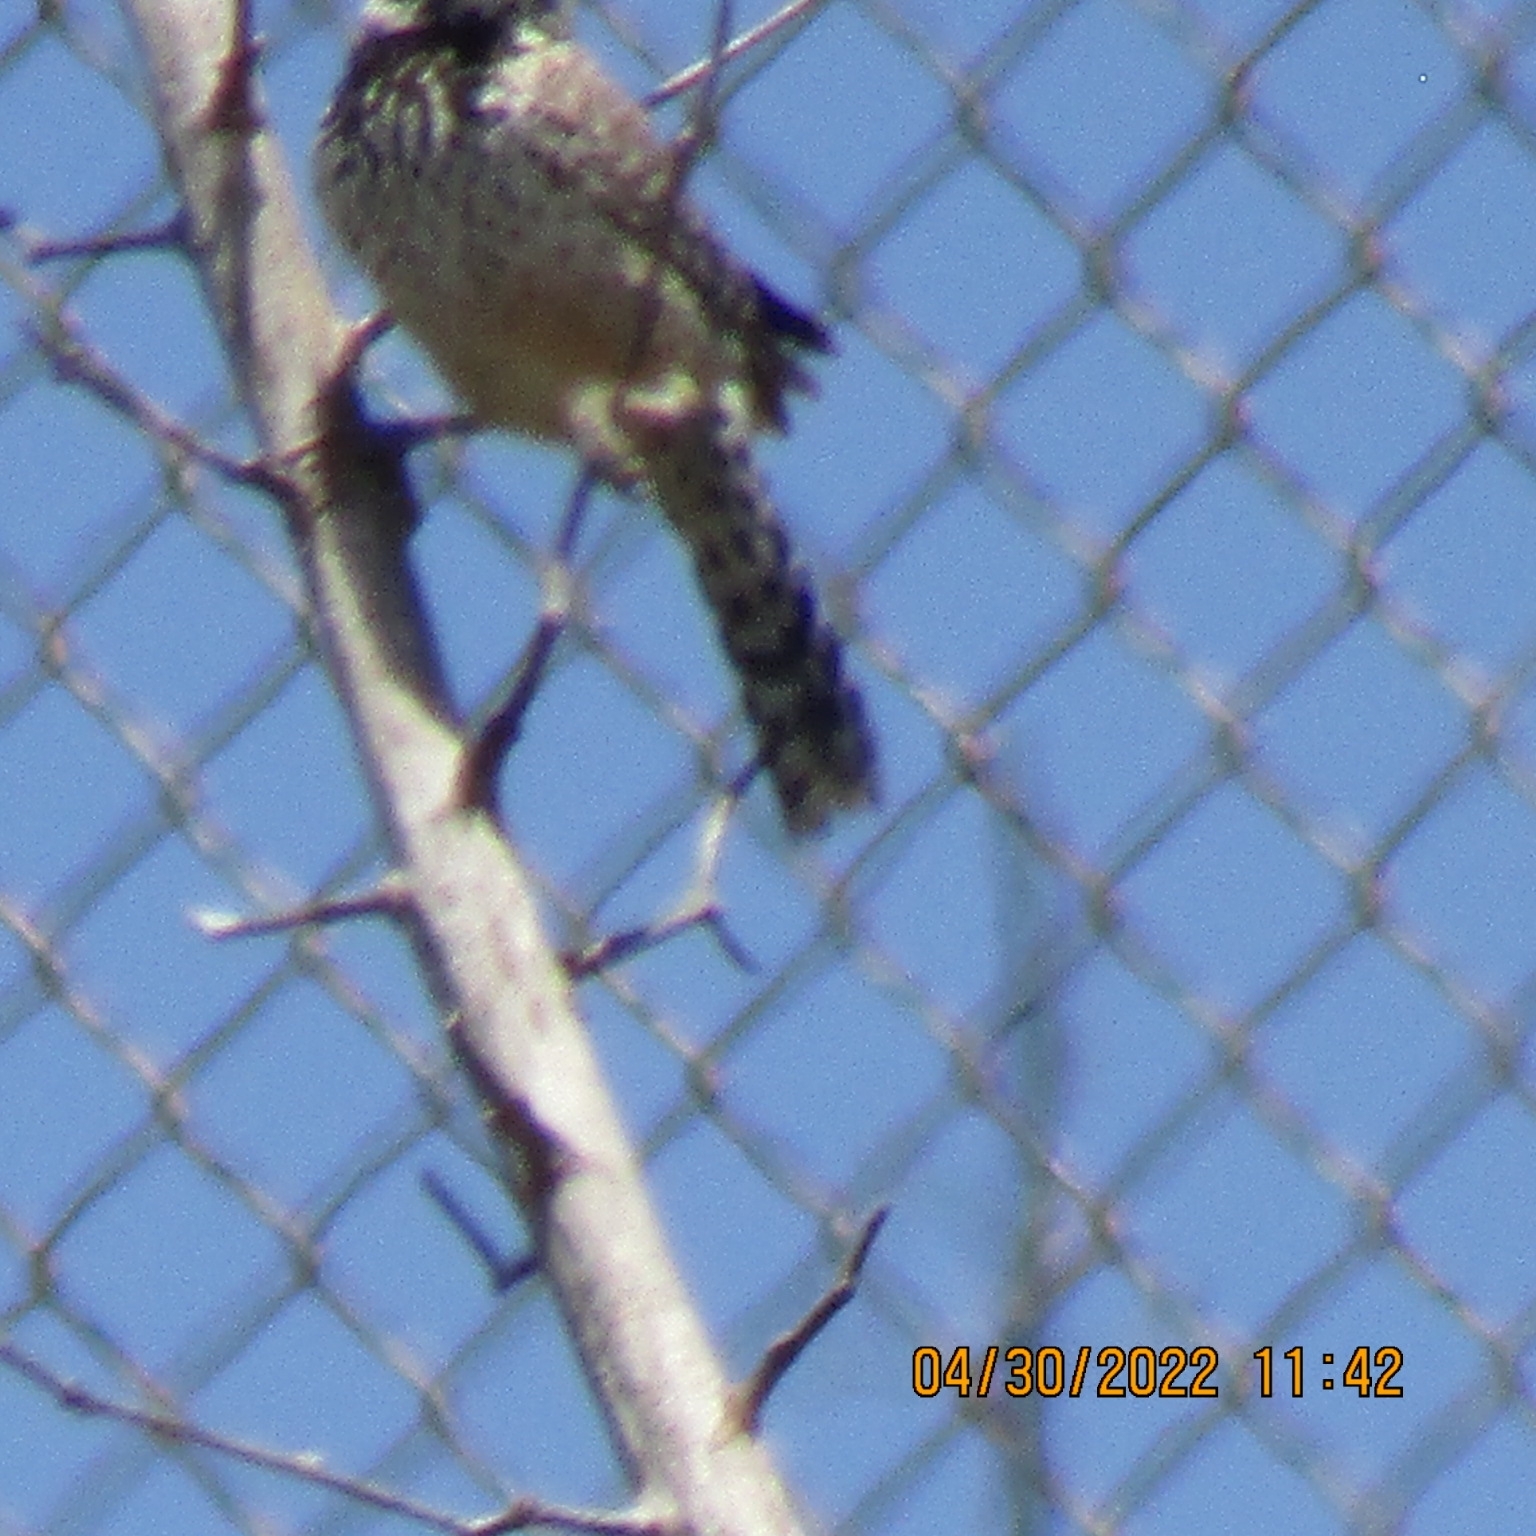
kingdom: Animalia
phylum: Chordata
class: Aves
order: Passeriformes
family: Troglodytidae
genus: Campylorhynchus
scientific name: Campylorhynchus brunneicapillus
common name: Cactus wren
